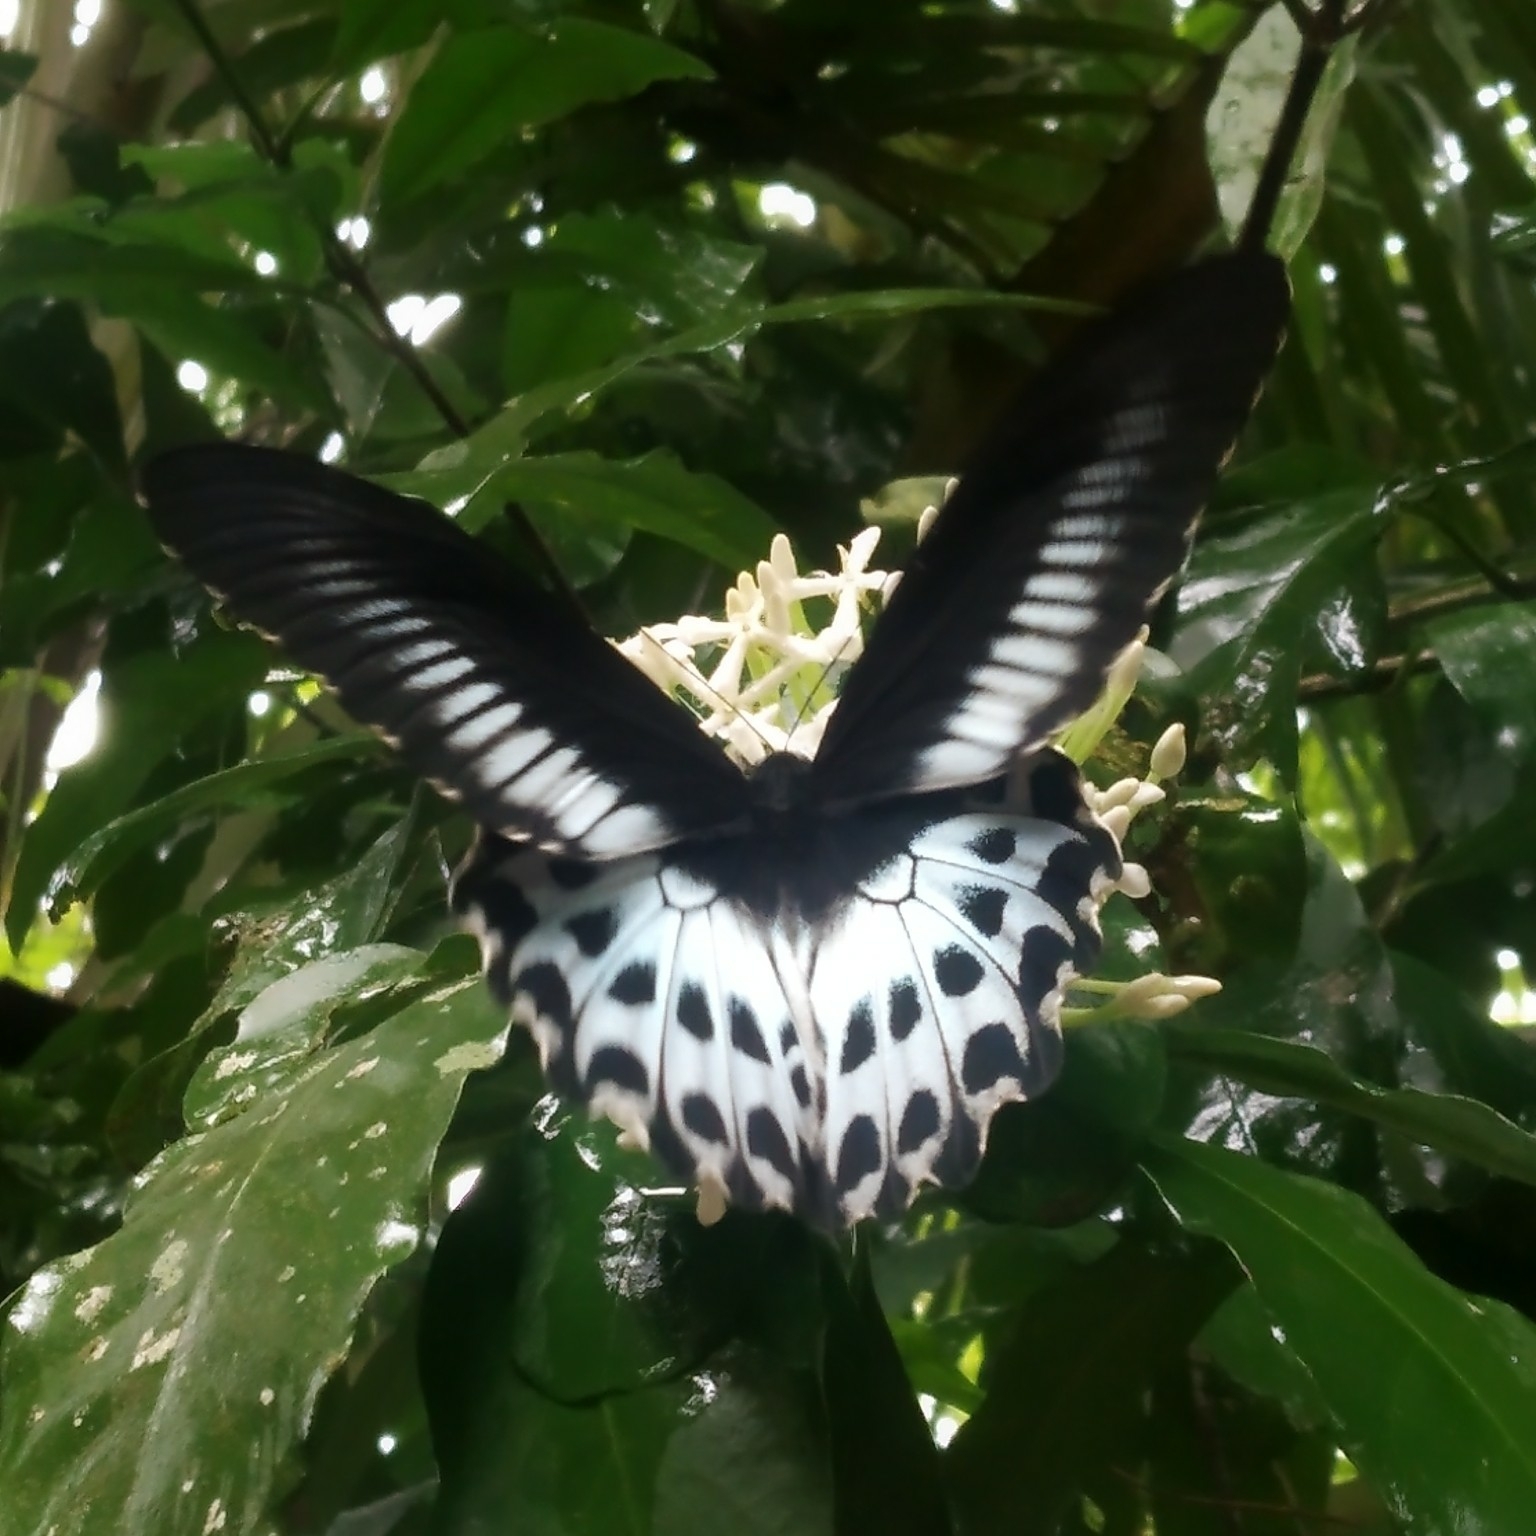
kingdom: Animalia
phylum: Arthropoda
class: Insecta
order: Lepidoptera
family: Papilionidae
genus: Papilio
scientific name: Papilio memnon
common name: Great mormon
